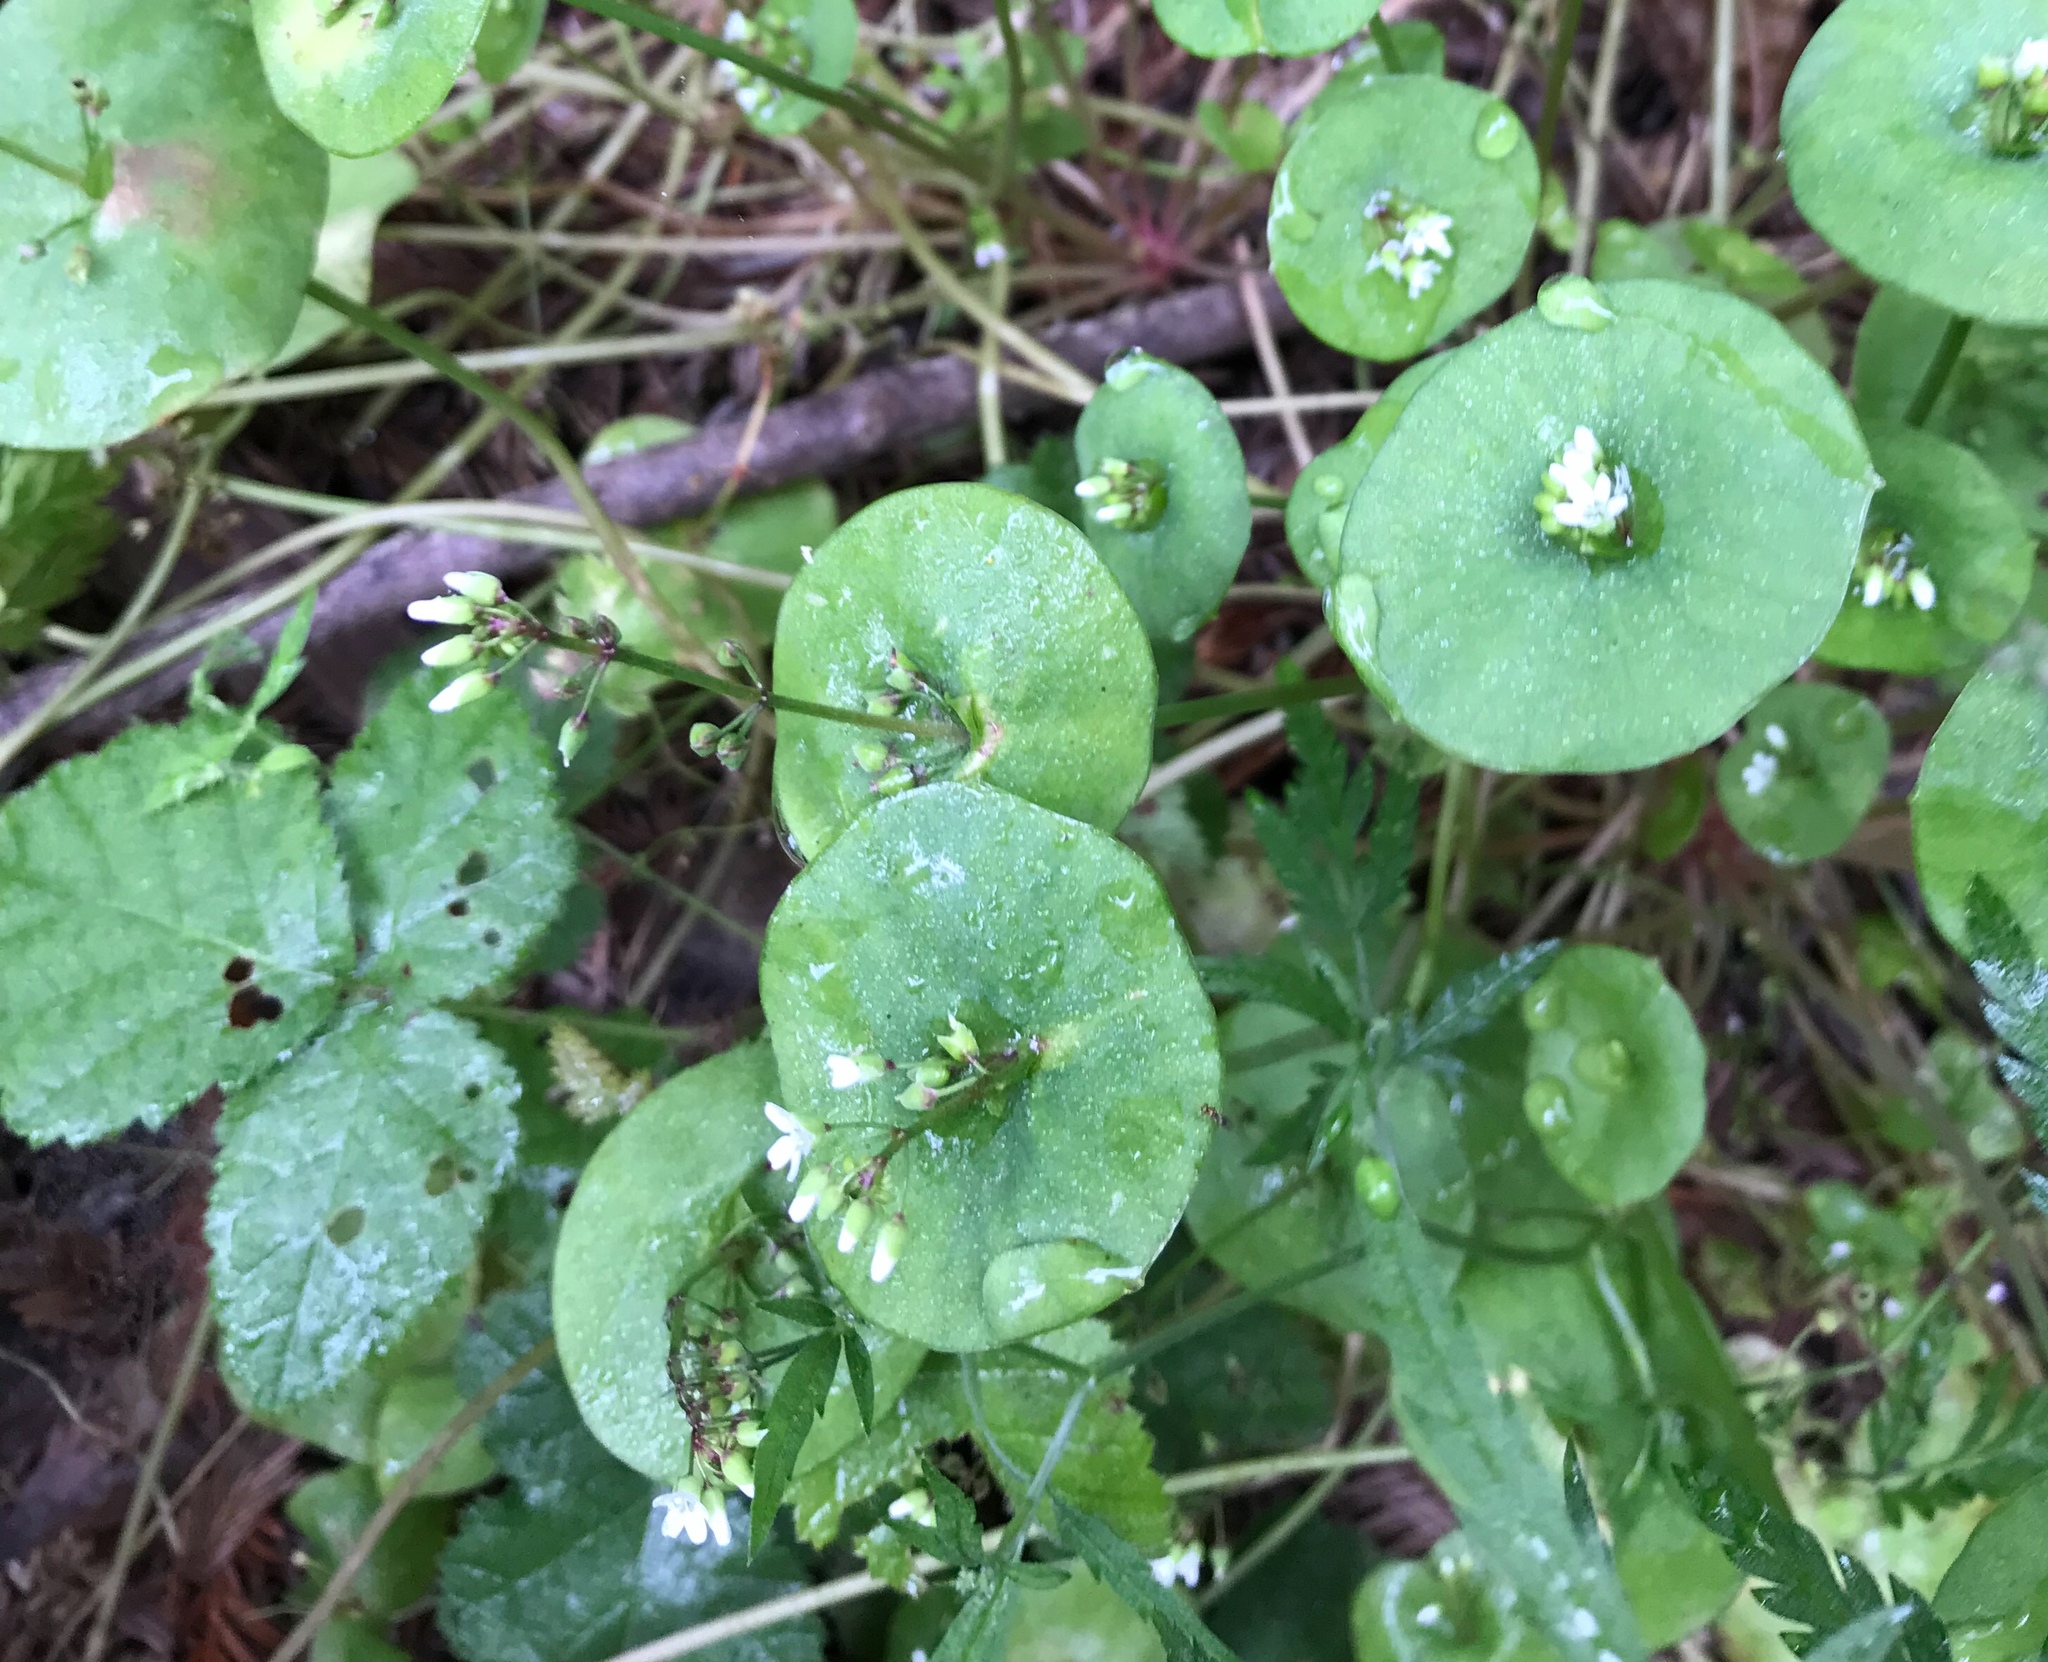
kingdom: Plantae
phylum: Tracheophyta
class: Magnoliopsida
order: Caryophyllales
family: Montiaceae
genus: Claytonia
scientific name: Claytonia perfoliata
